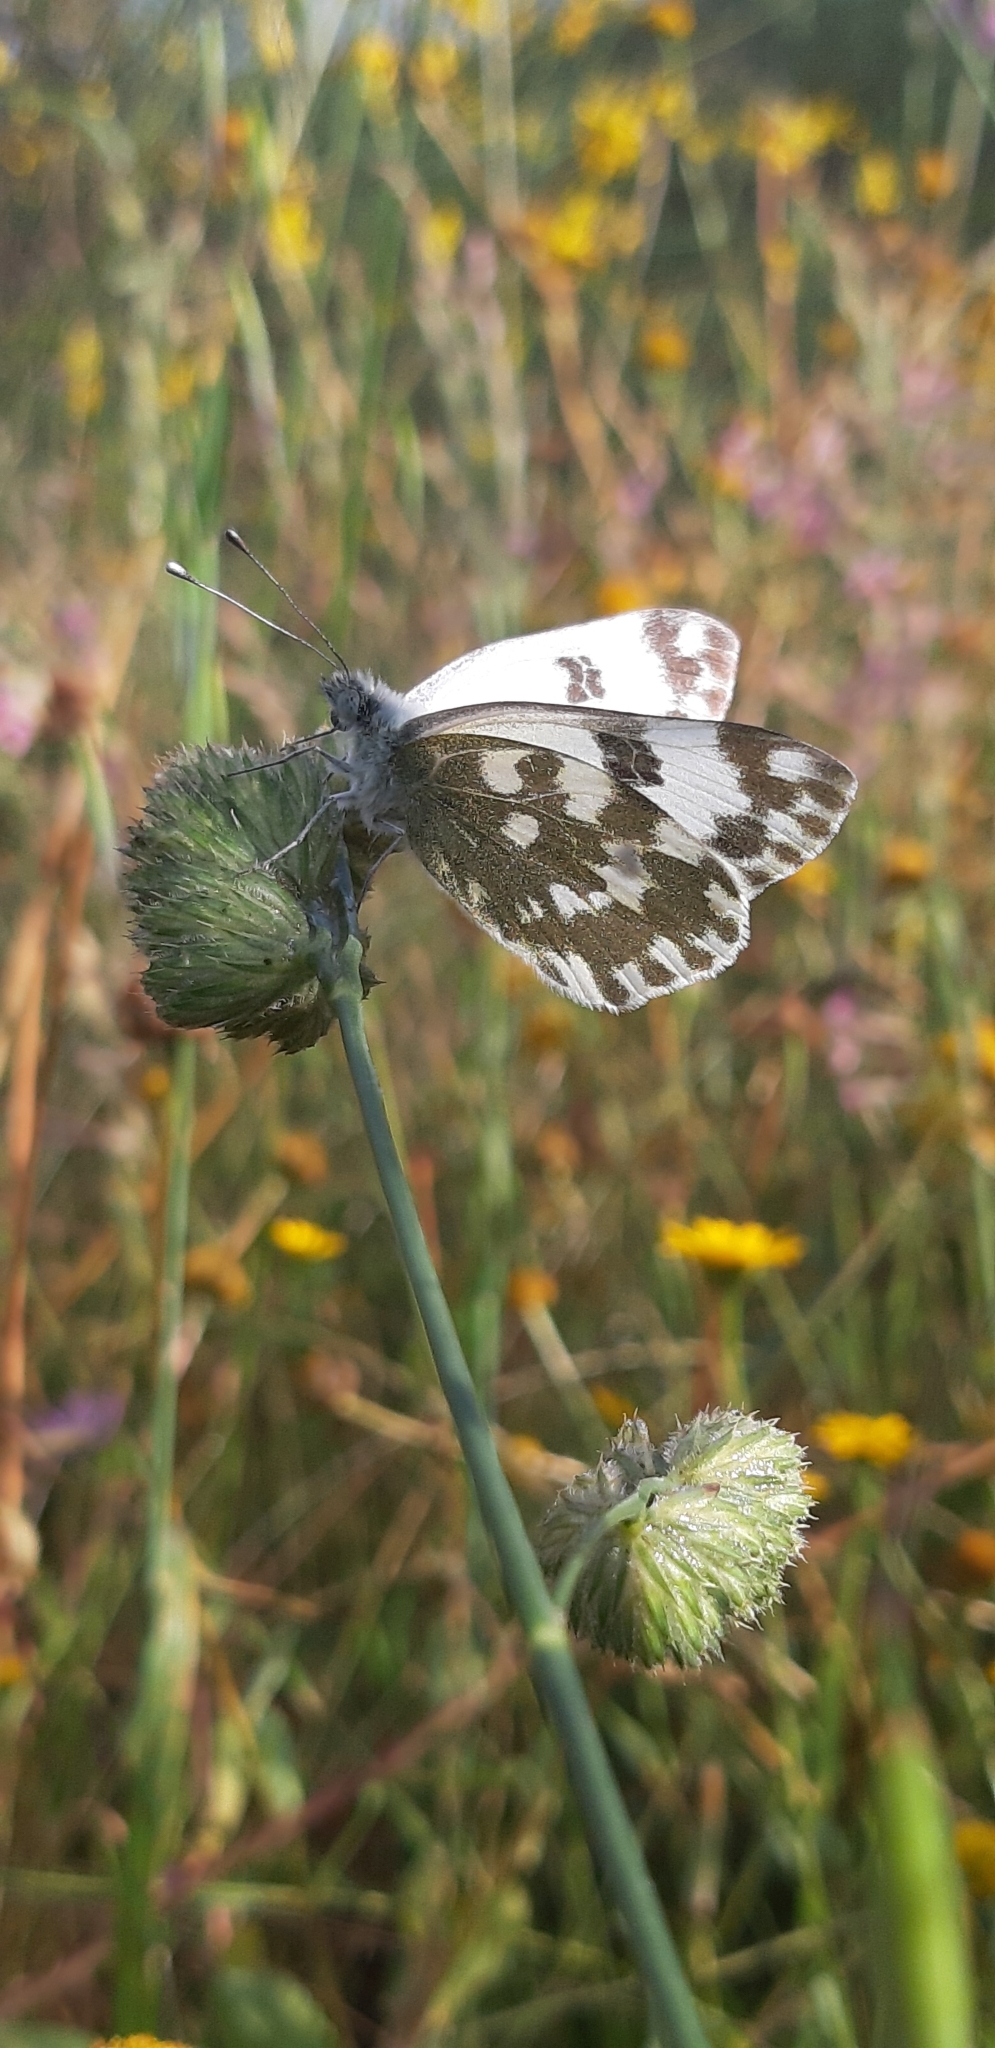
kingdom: Animalia
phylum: Arthropoda
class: Insecta
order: Lepidoptera
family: Pieridae
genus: Pontia
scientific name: Pontia edusa
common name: Eastern bath white
